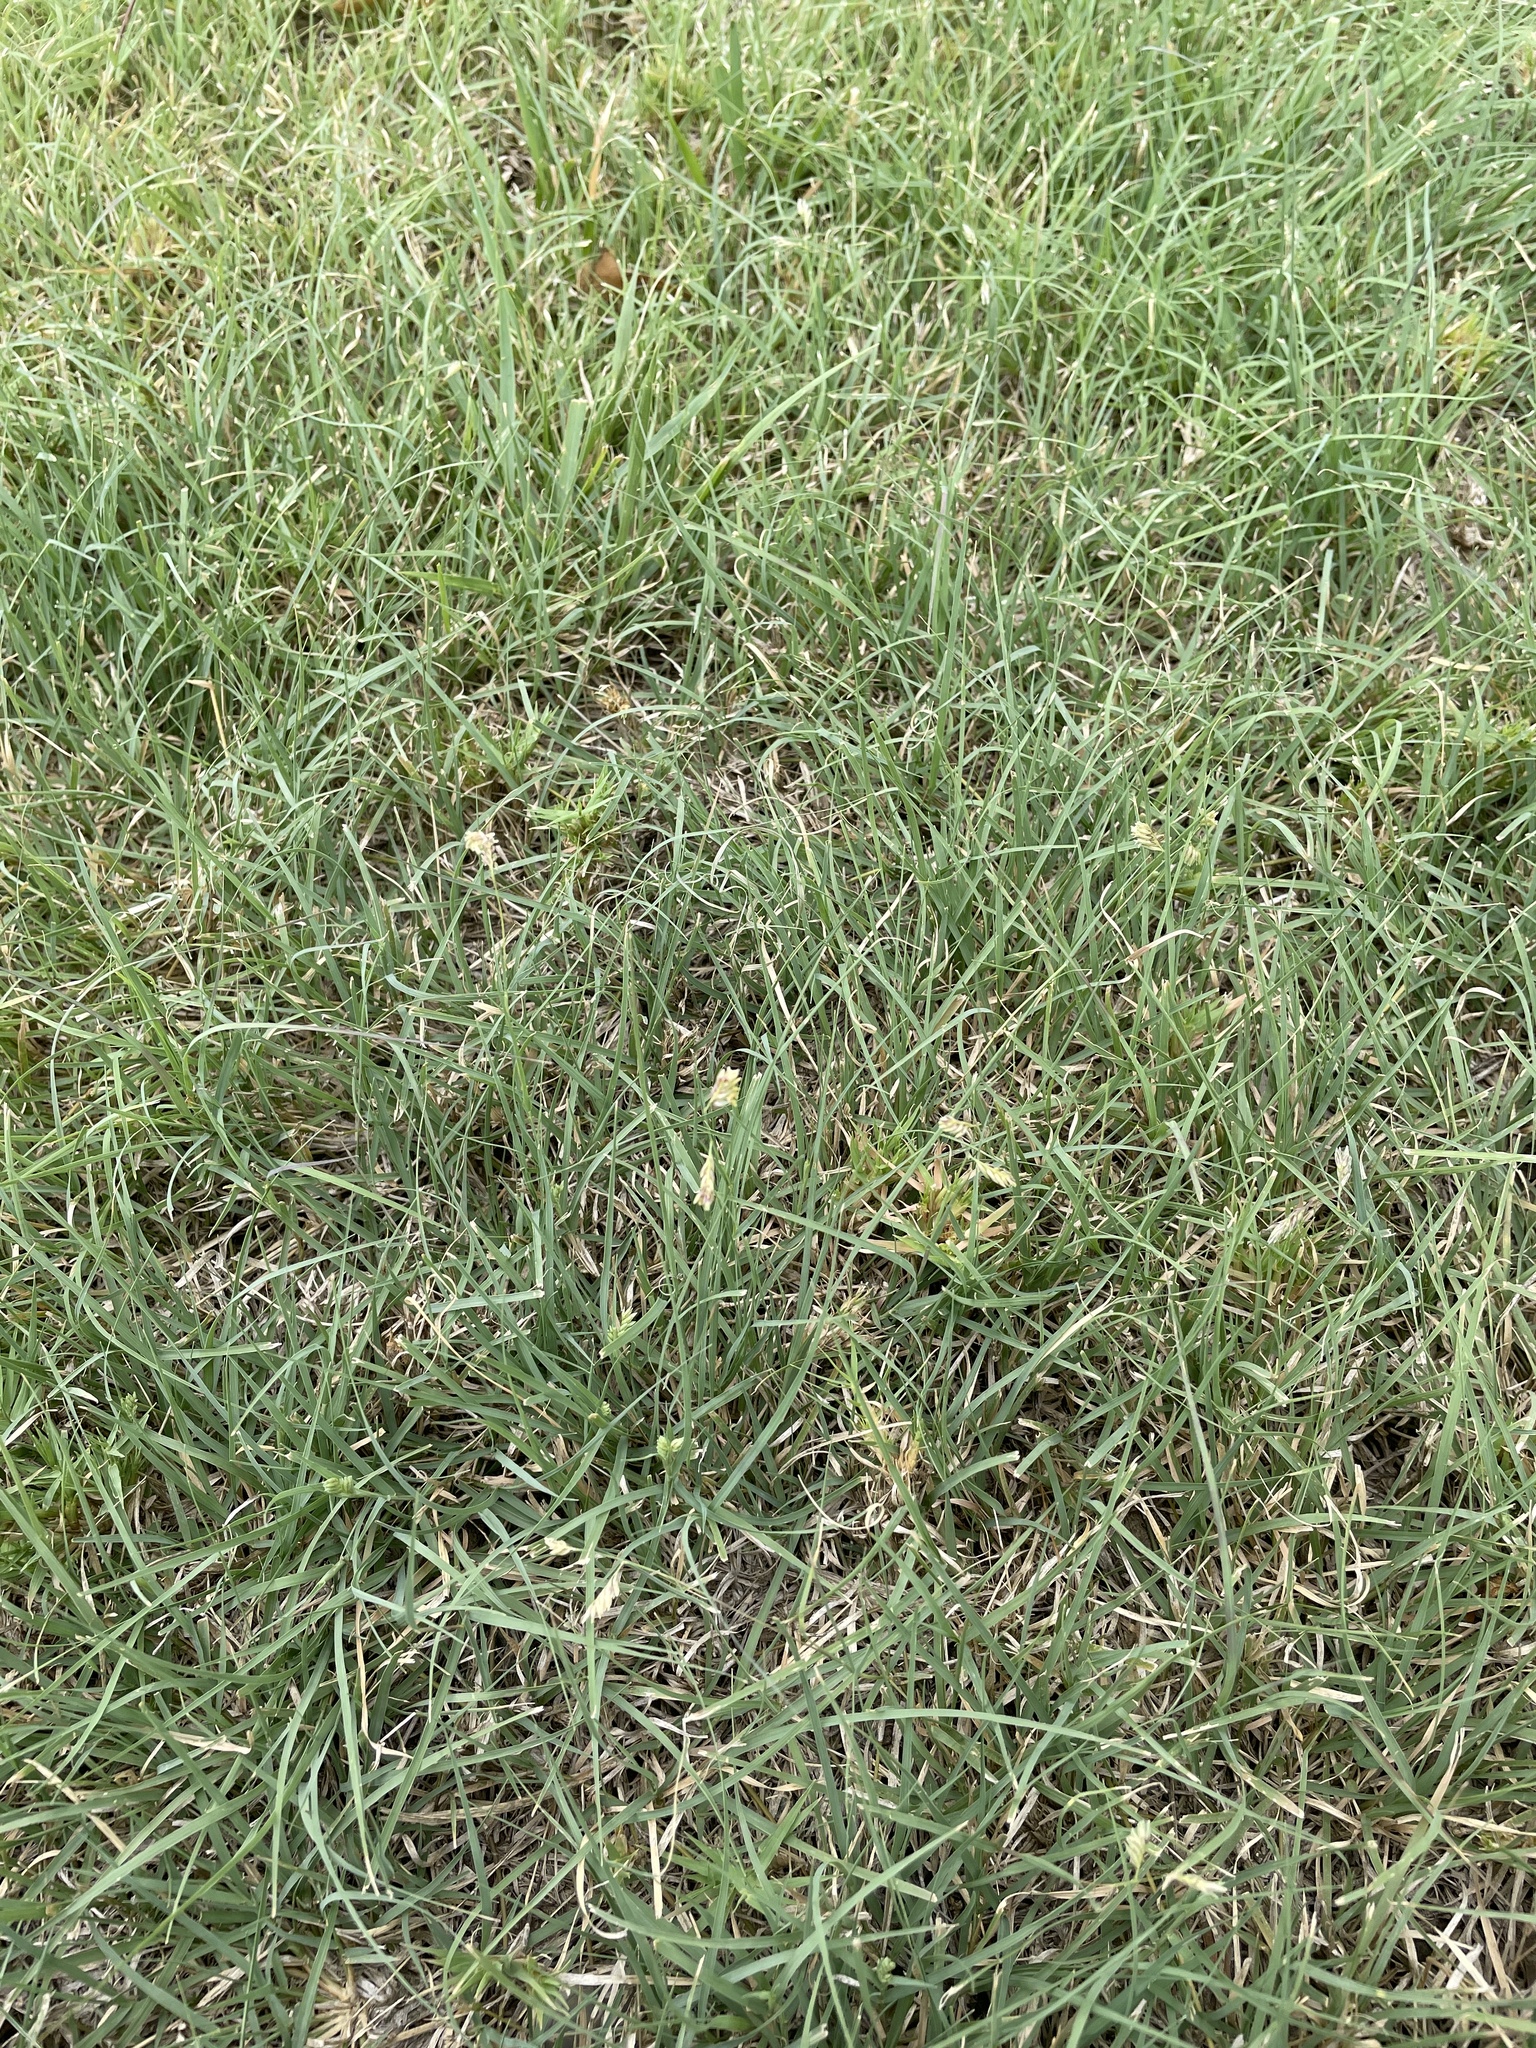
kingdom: Plantae
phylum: Tracheophyta
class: Liliopsida
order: Poales
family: Poaceae
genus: Bouteloua
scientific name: Bouteloua dactyloides
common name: Buffalo grass
